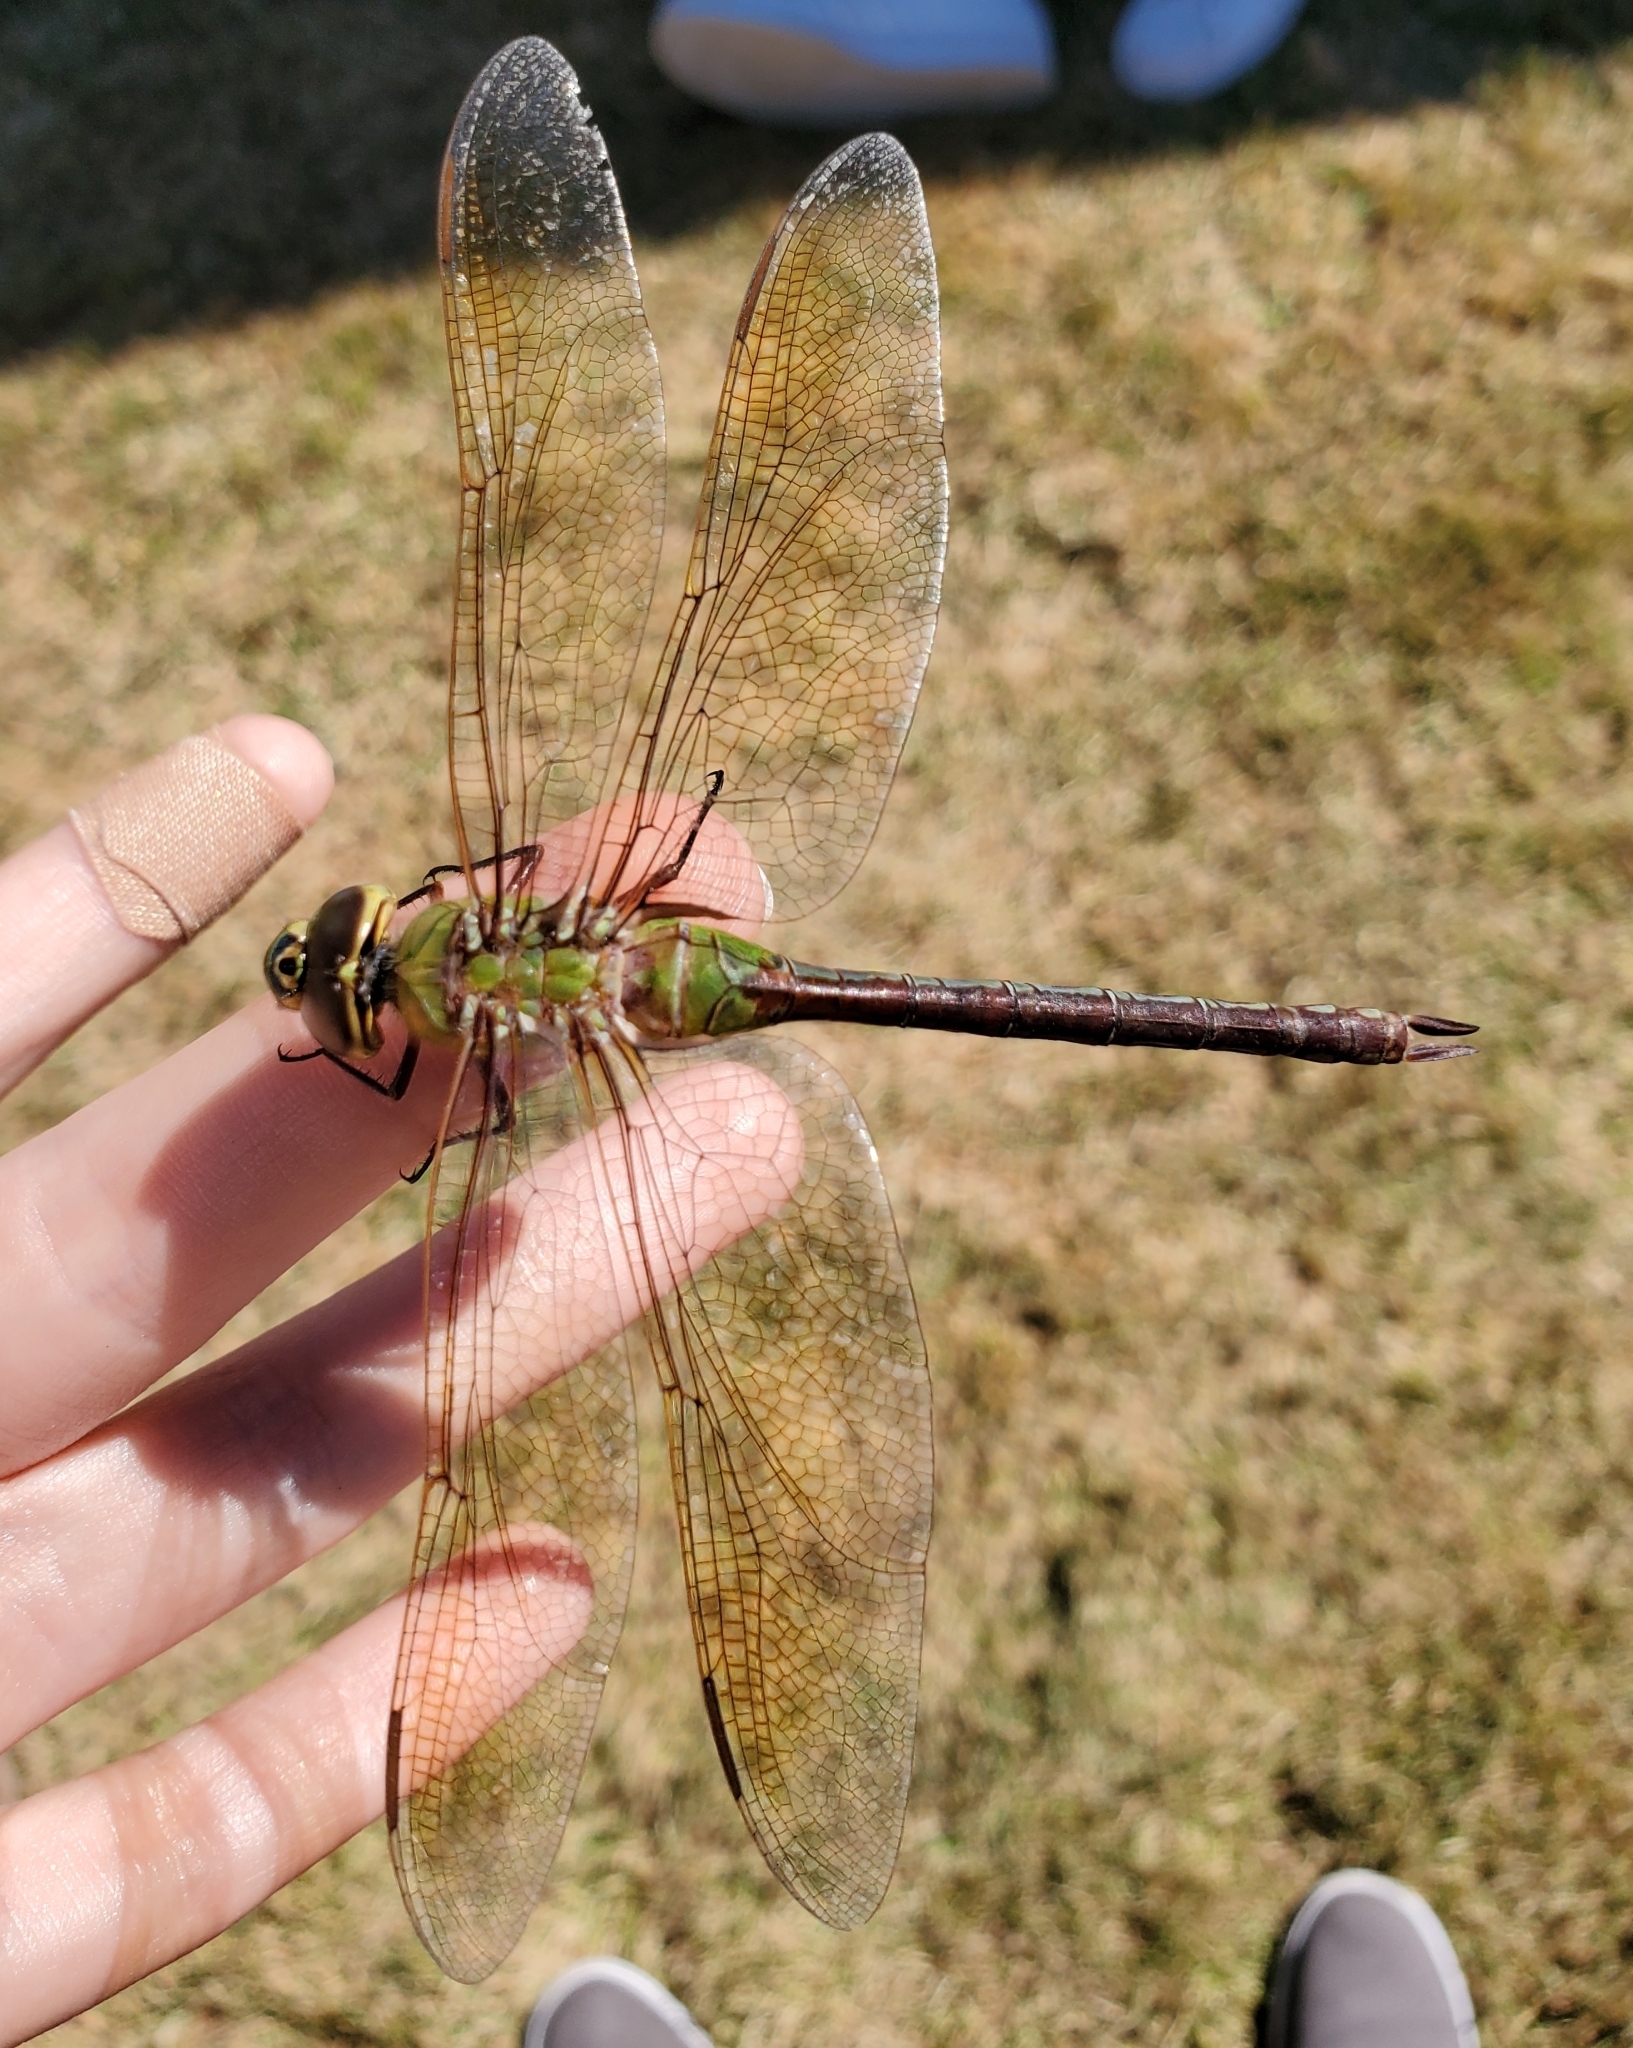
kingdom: Animalia
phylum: Arthropoda
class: Insecta
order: Odonata
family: Aeshnidae
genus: Anax
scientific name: Anax junius
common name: Common green darner
